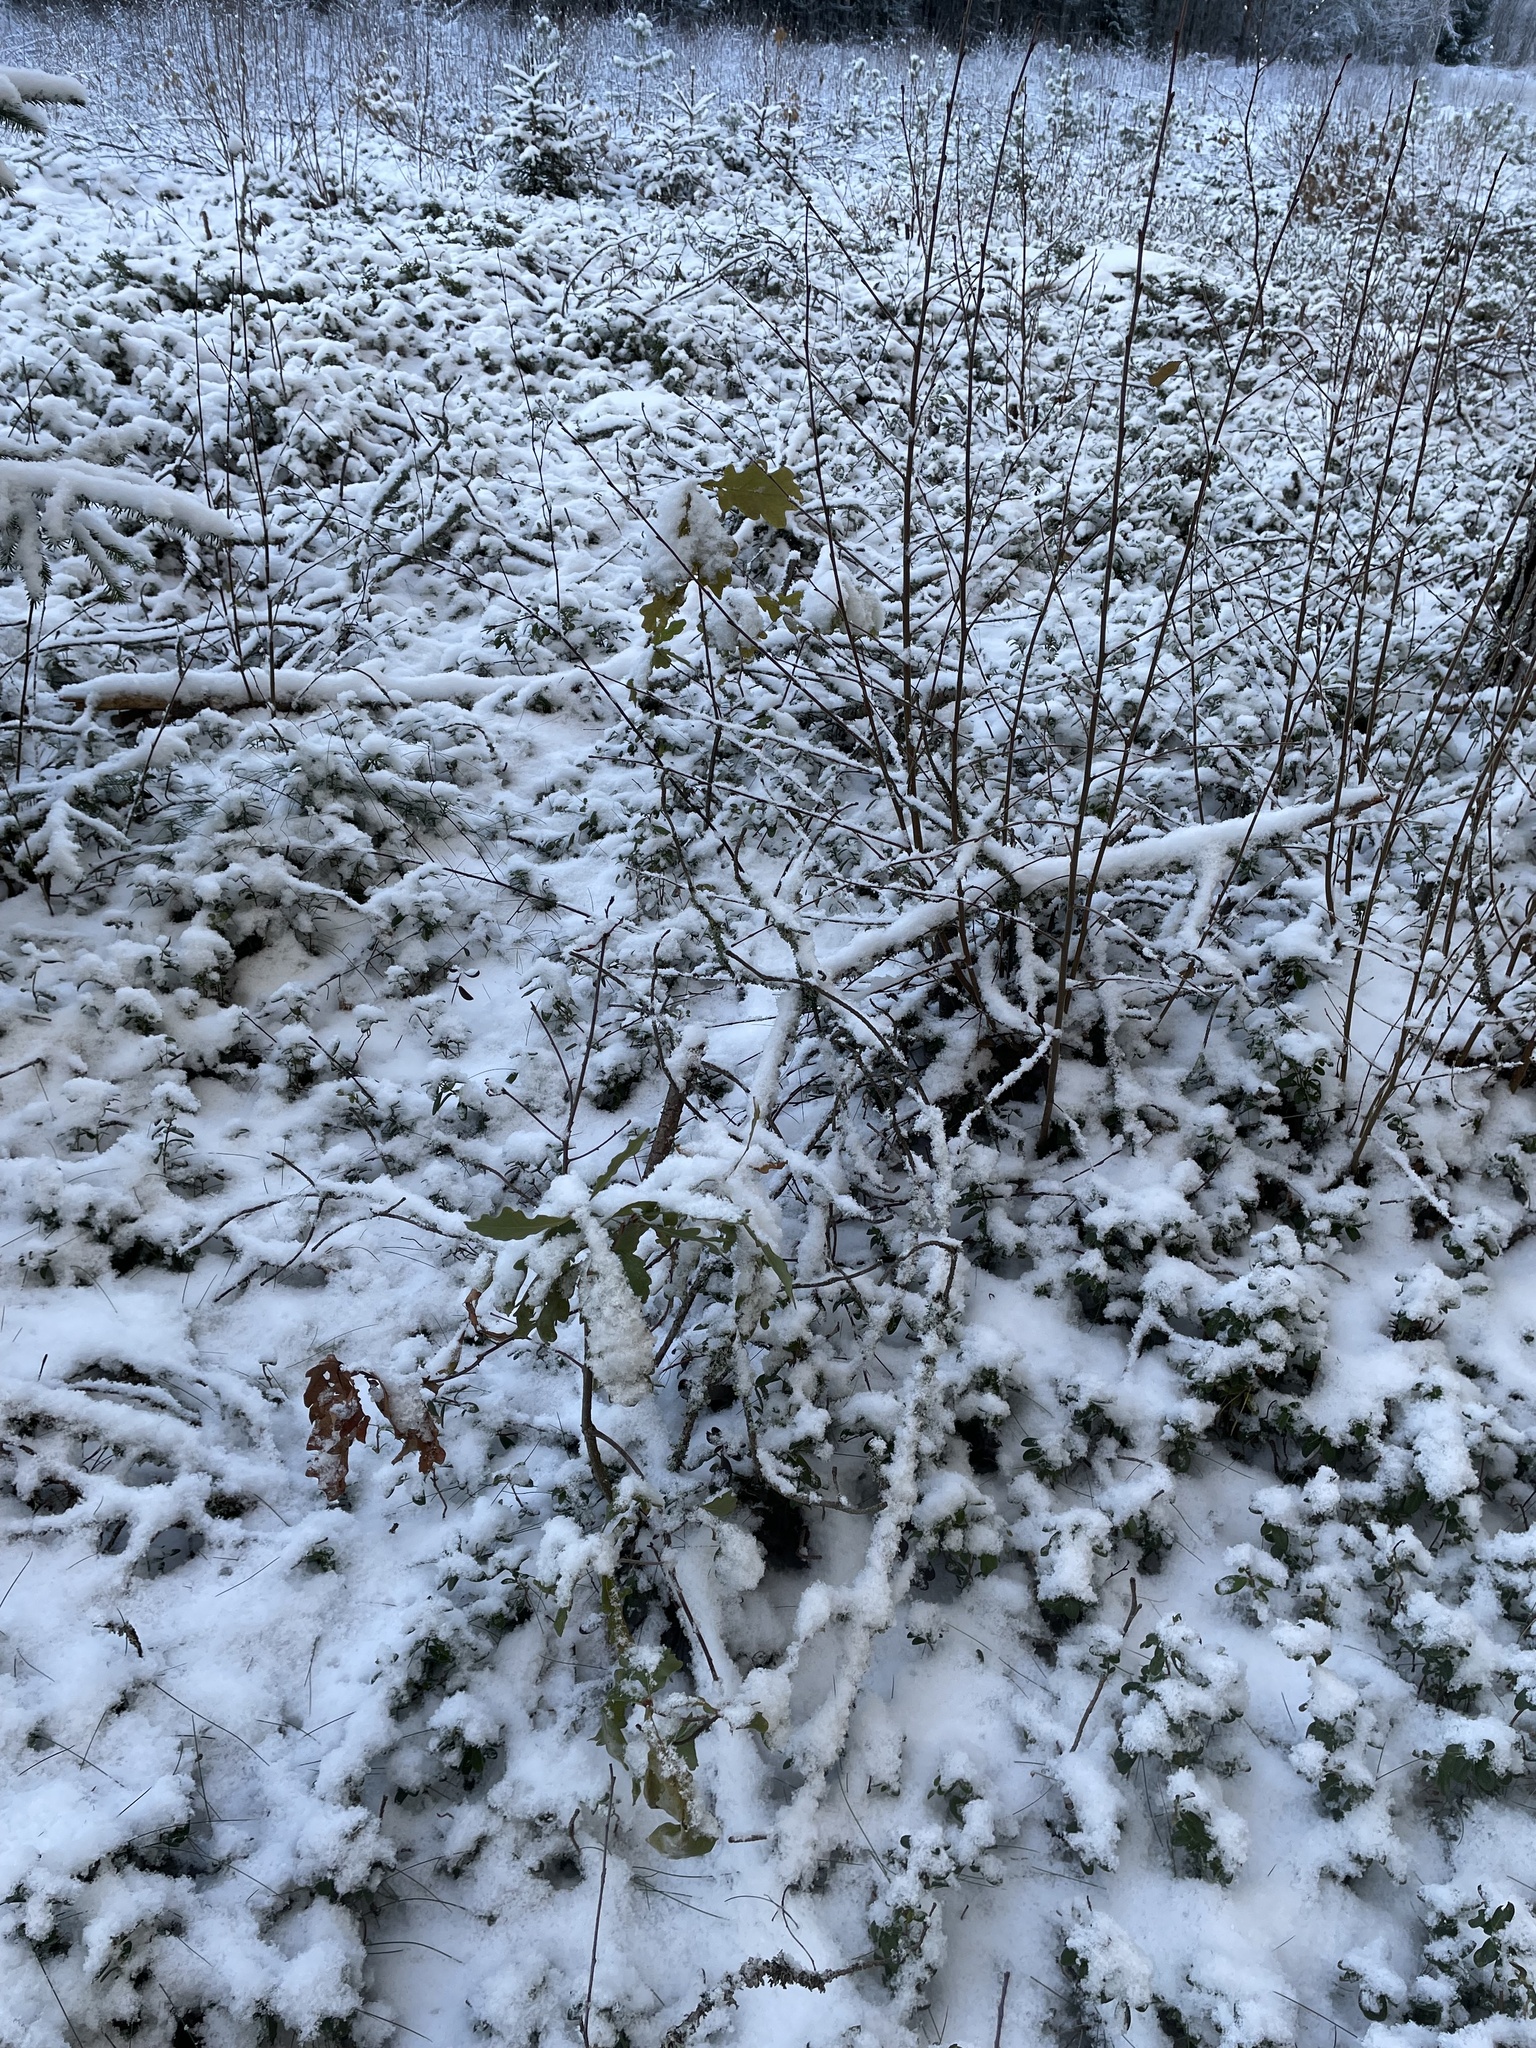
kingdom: Plantae
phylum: Tracheophyta
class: Magnoliopsida
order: Fagales
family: Fagaceae
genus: Quercus
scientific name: Quercus robur
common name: Pedunculate oak
